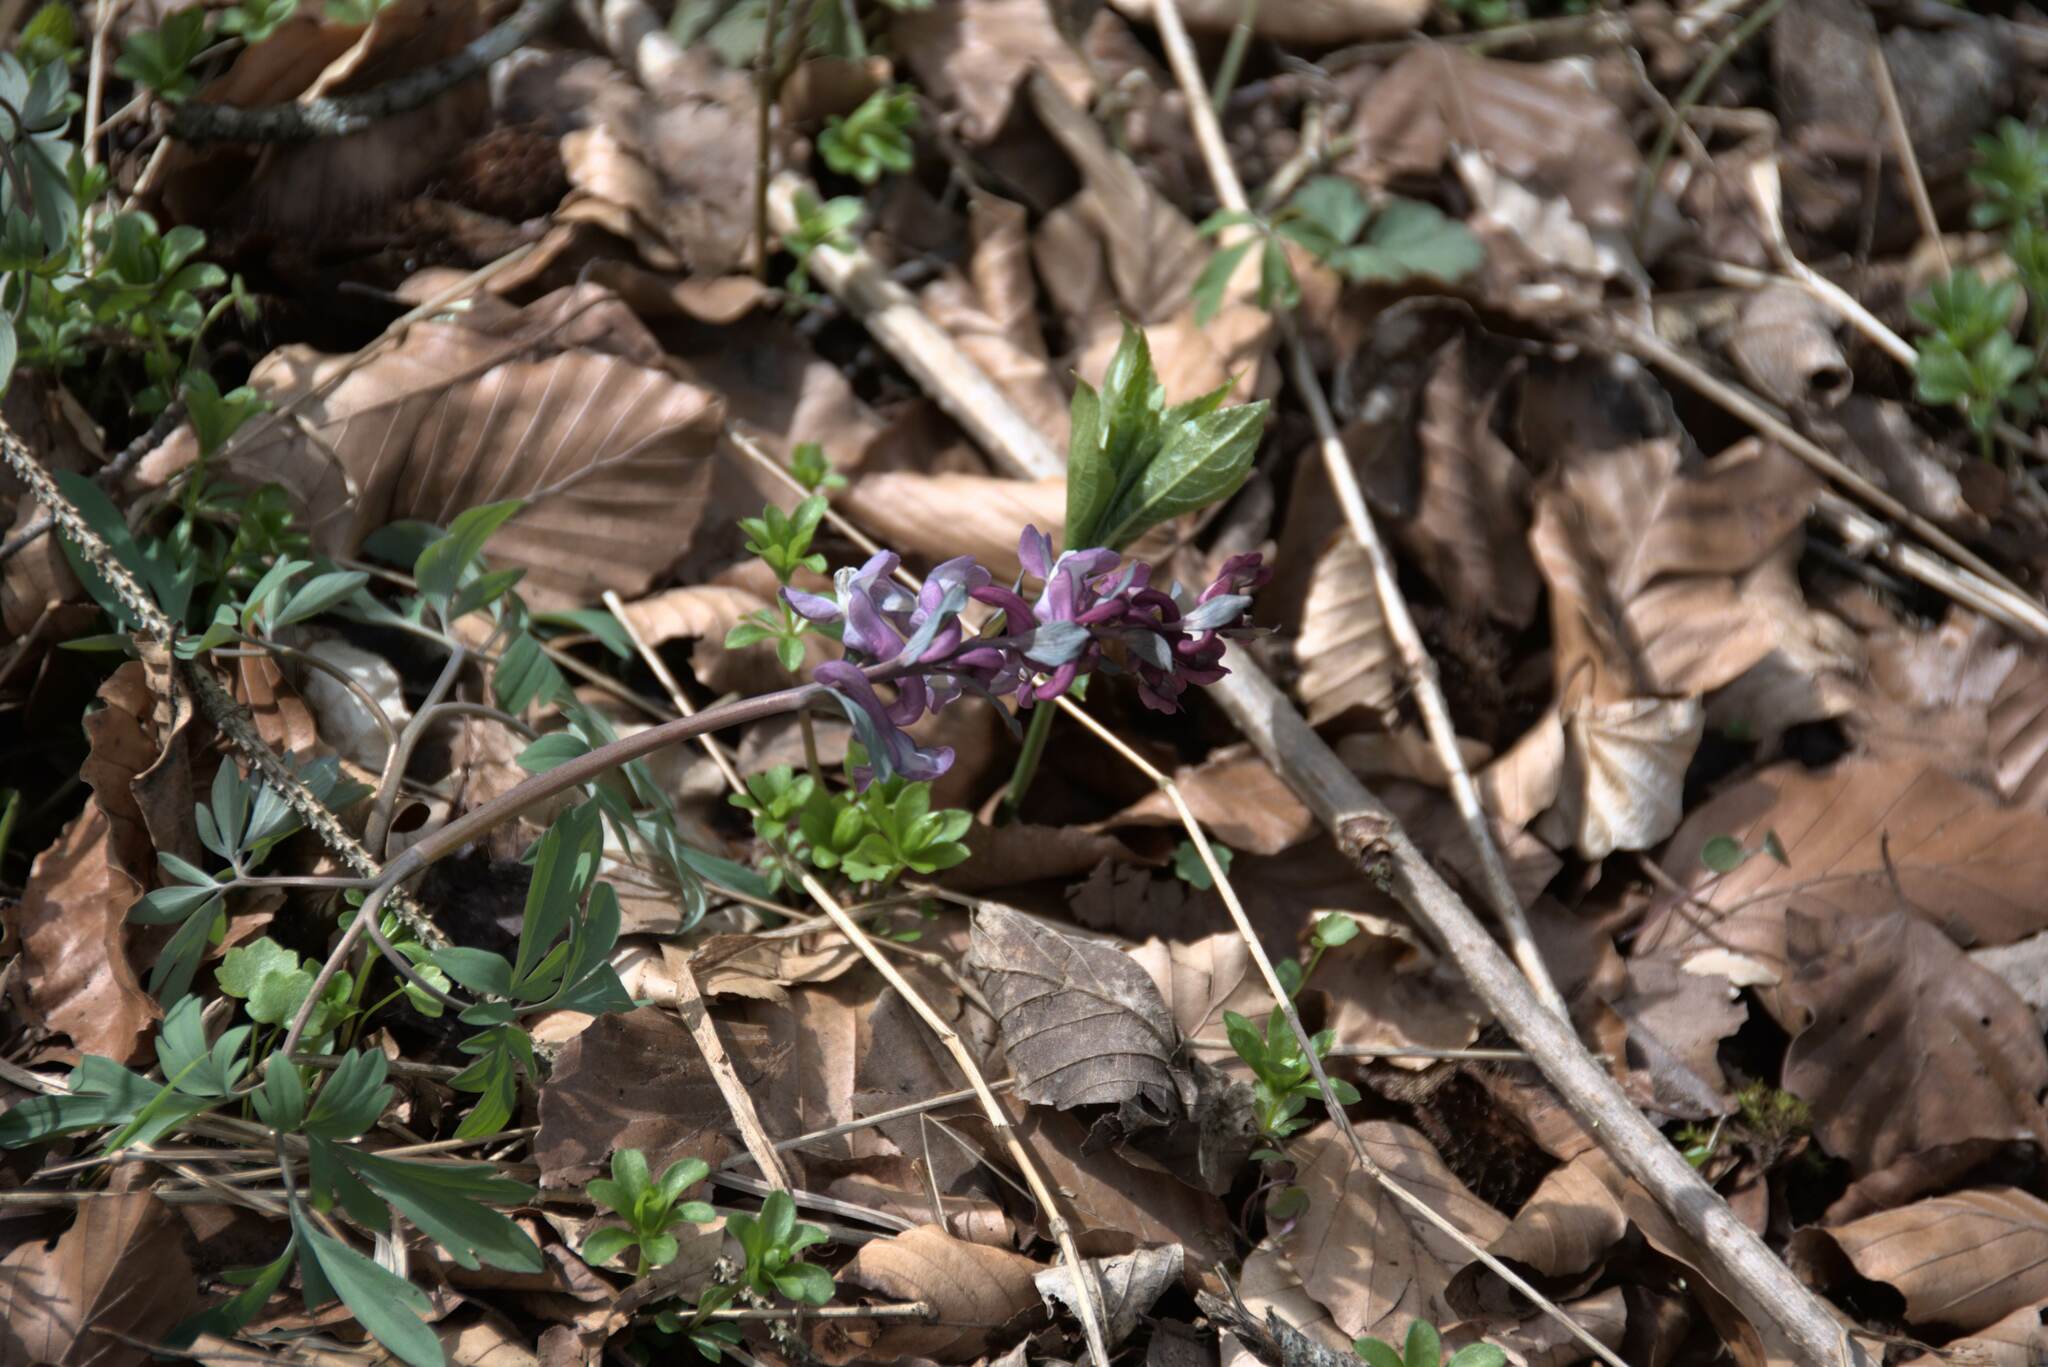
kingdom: Plantae
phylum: Tracheophyta
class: Magnoliopsida
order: Ranunculales
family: Papaveraceae
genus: Corydalis
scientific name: Corydalis cava
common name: Hollowroot
